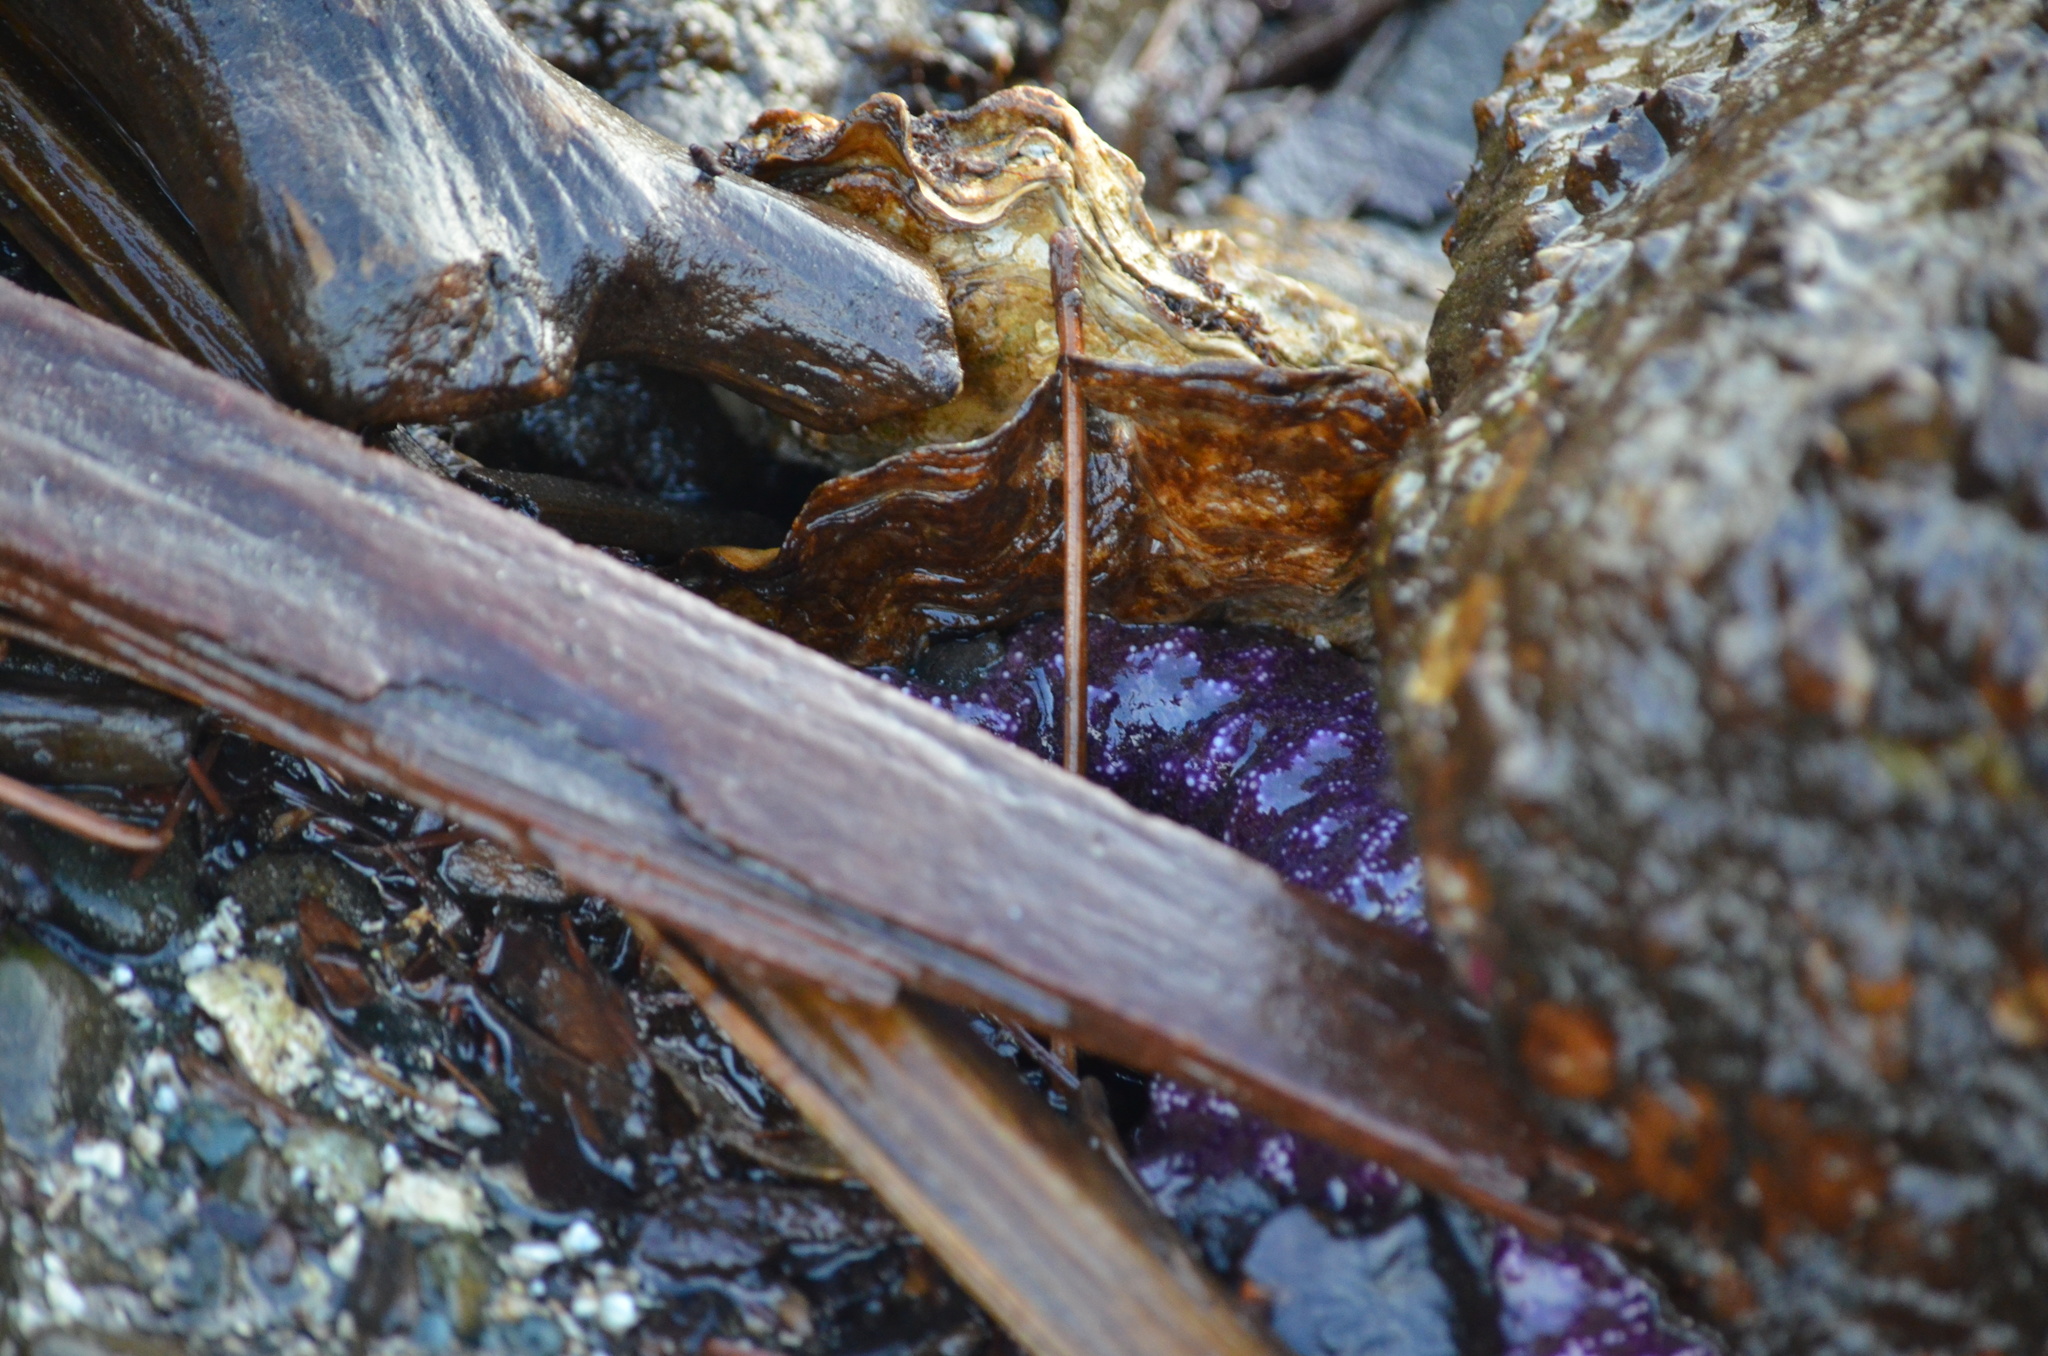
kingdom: Animalia
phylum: Echinodermata
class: Asteroidea
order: Forcipulatida
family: Asteriidae
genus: Pisaster
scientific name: Pisaster ochraceus
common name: Ochre stars
